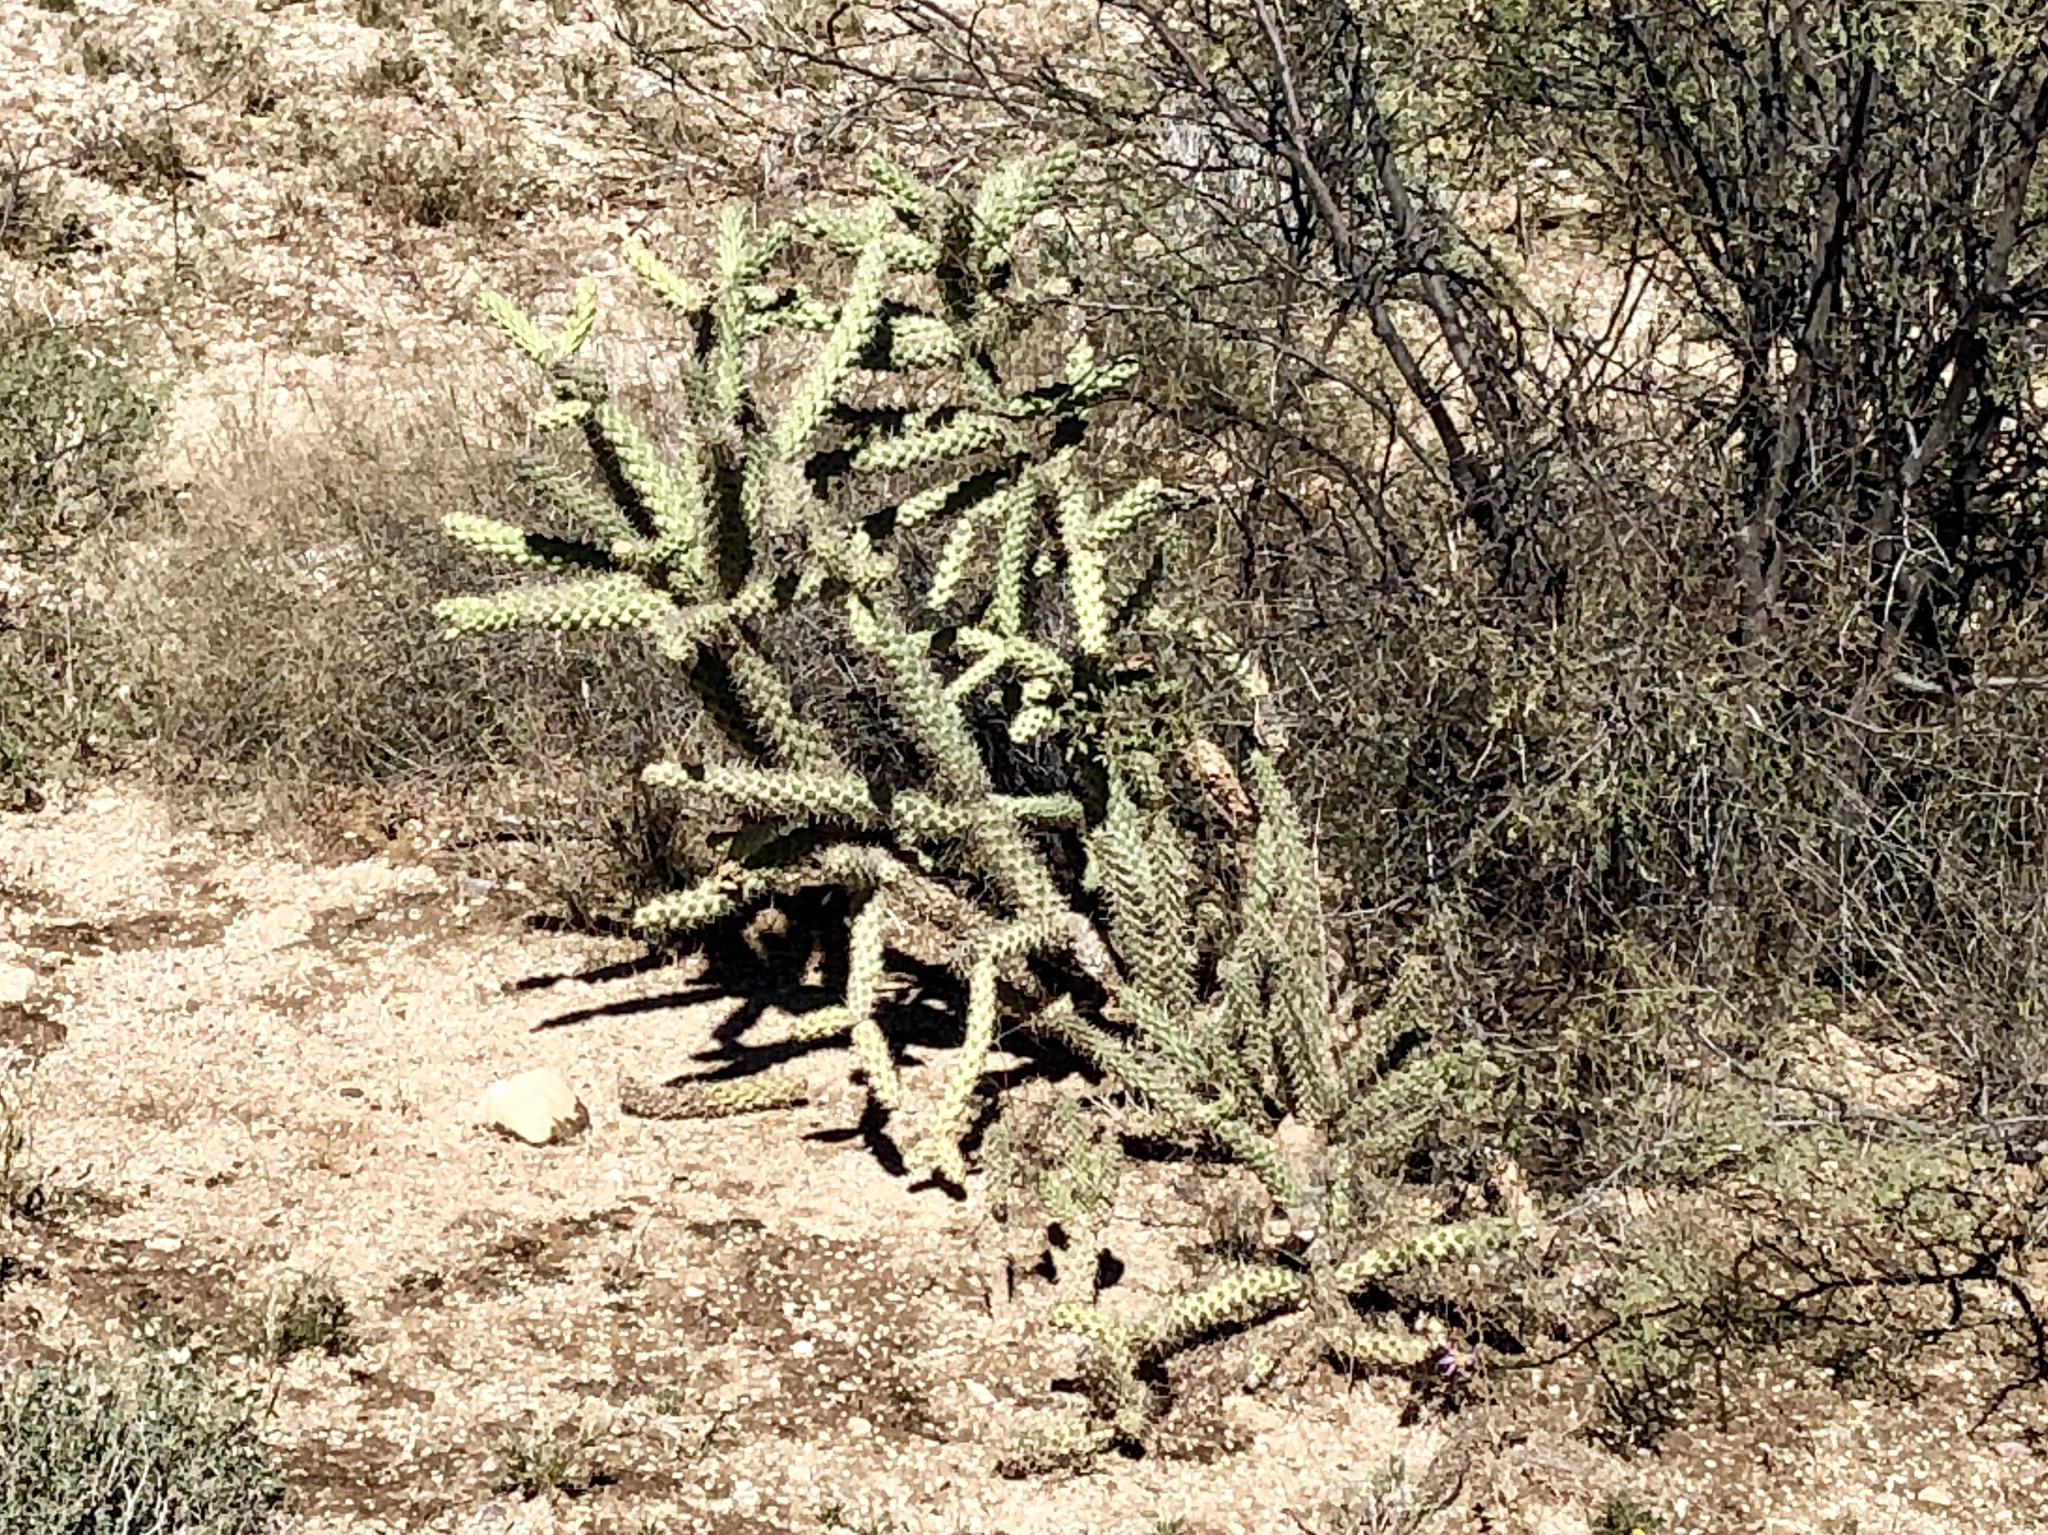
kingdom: Plantae
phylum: Tracheophyta
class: Magnoliopsida
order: Caryophyllales
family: Cactaceae
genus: Cylindropuntia
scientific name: Cylindropuntia imbricata
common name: Candelabrum cactus
